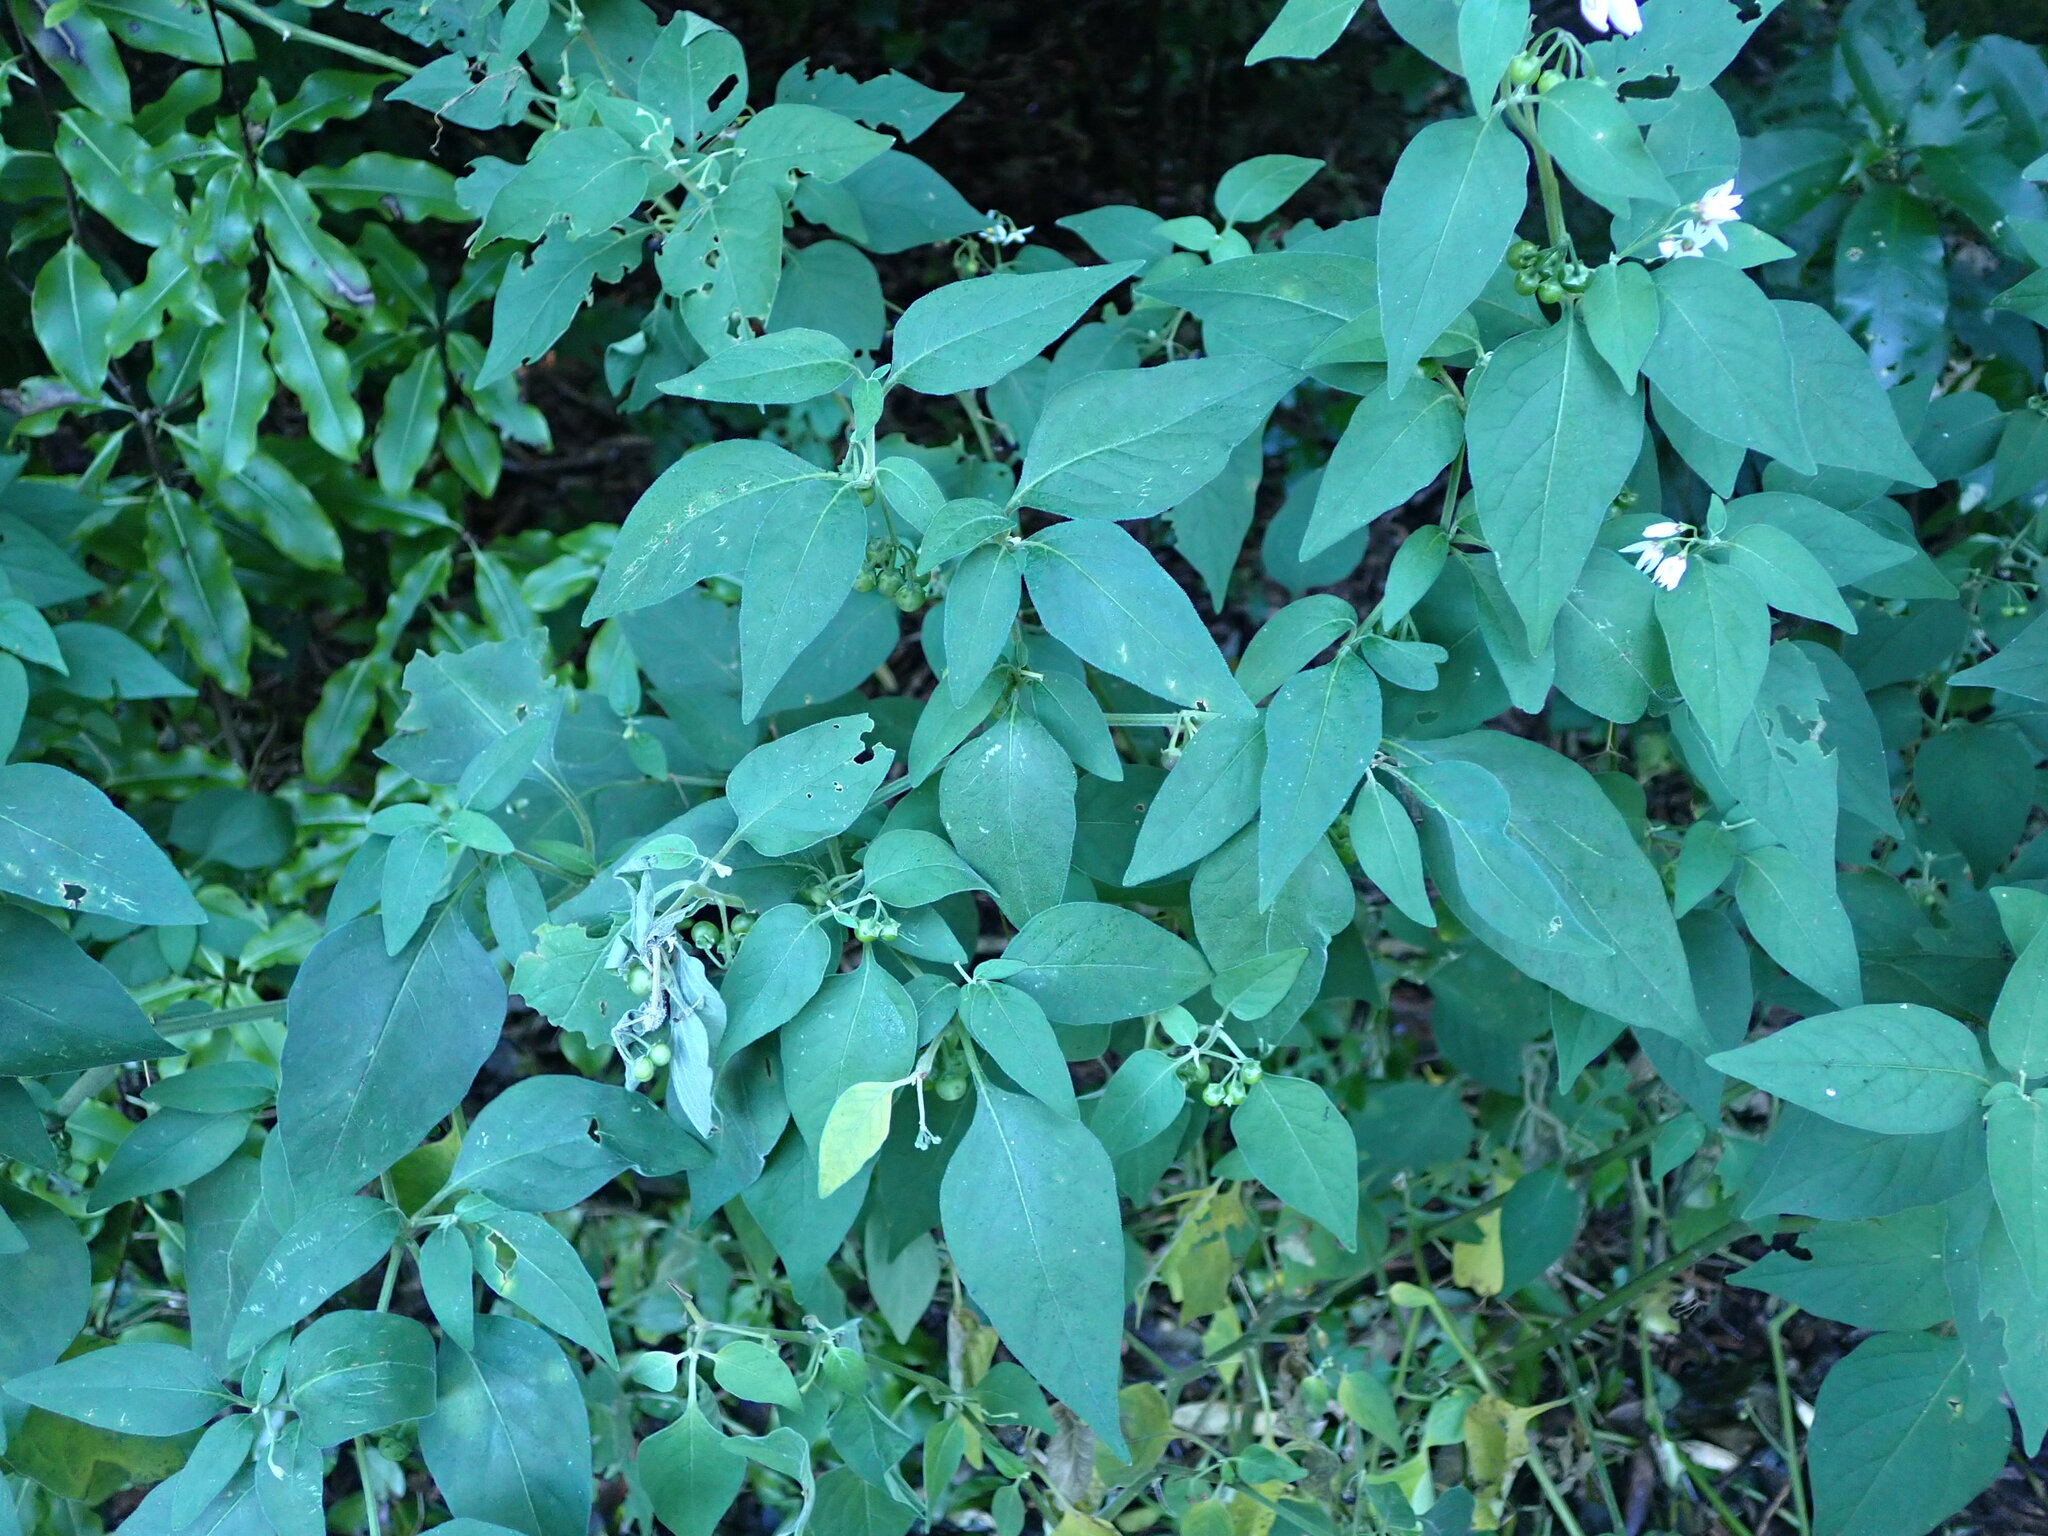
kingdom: Plantae
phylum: Tracheophyta
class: Magnoliopsida
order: Solanales
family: Solanaceae
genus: Solanum
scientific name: Solanum chenopodioides
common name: Tall nightshade
